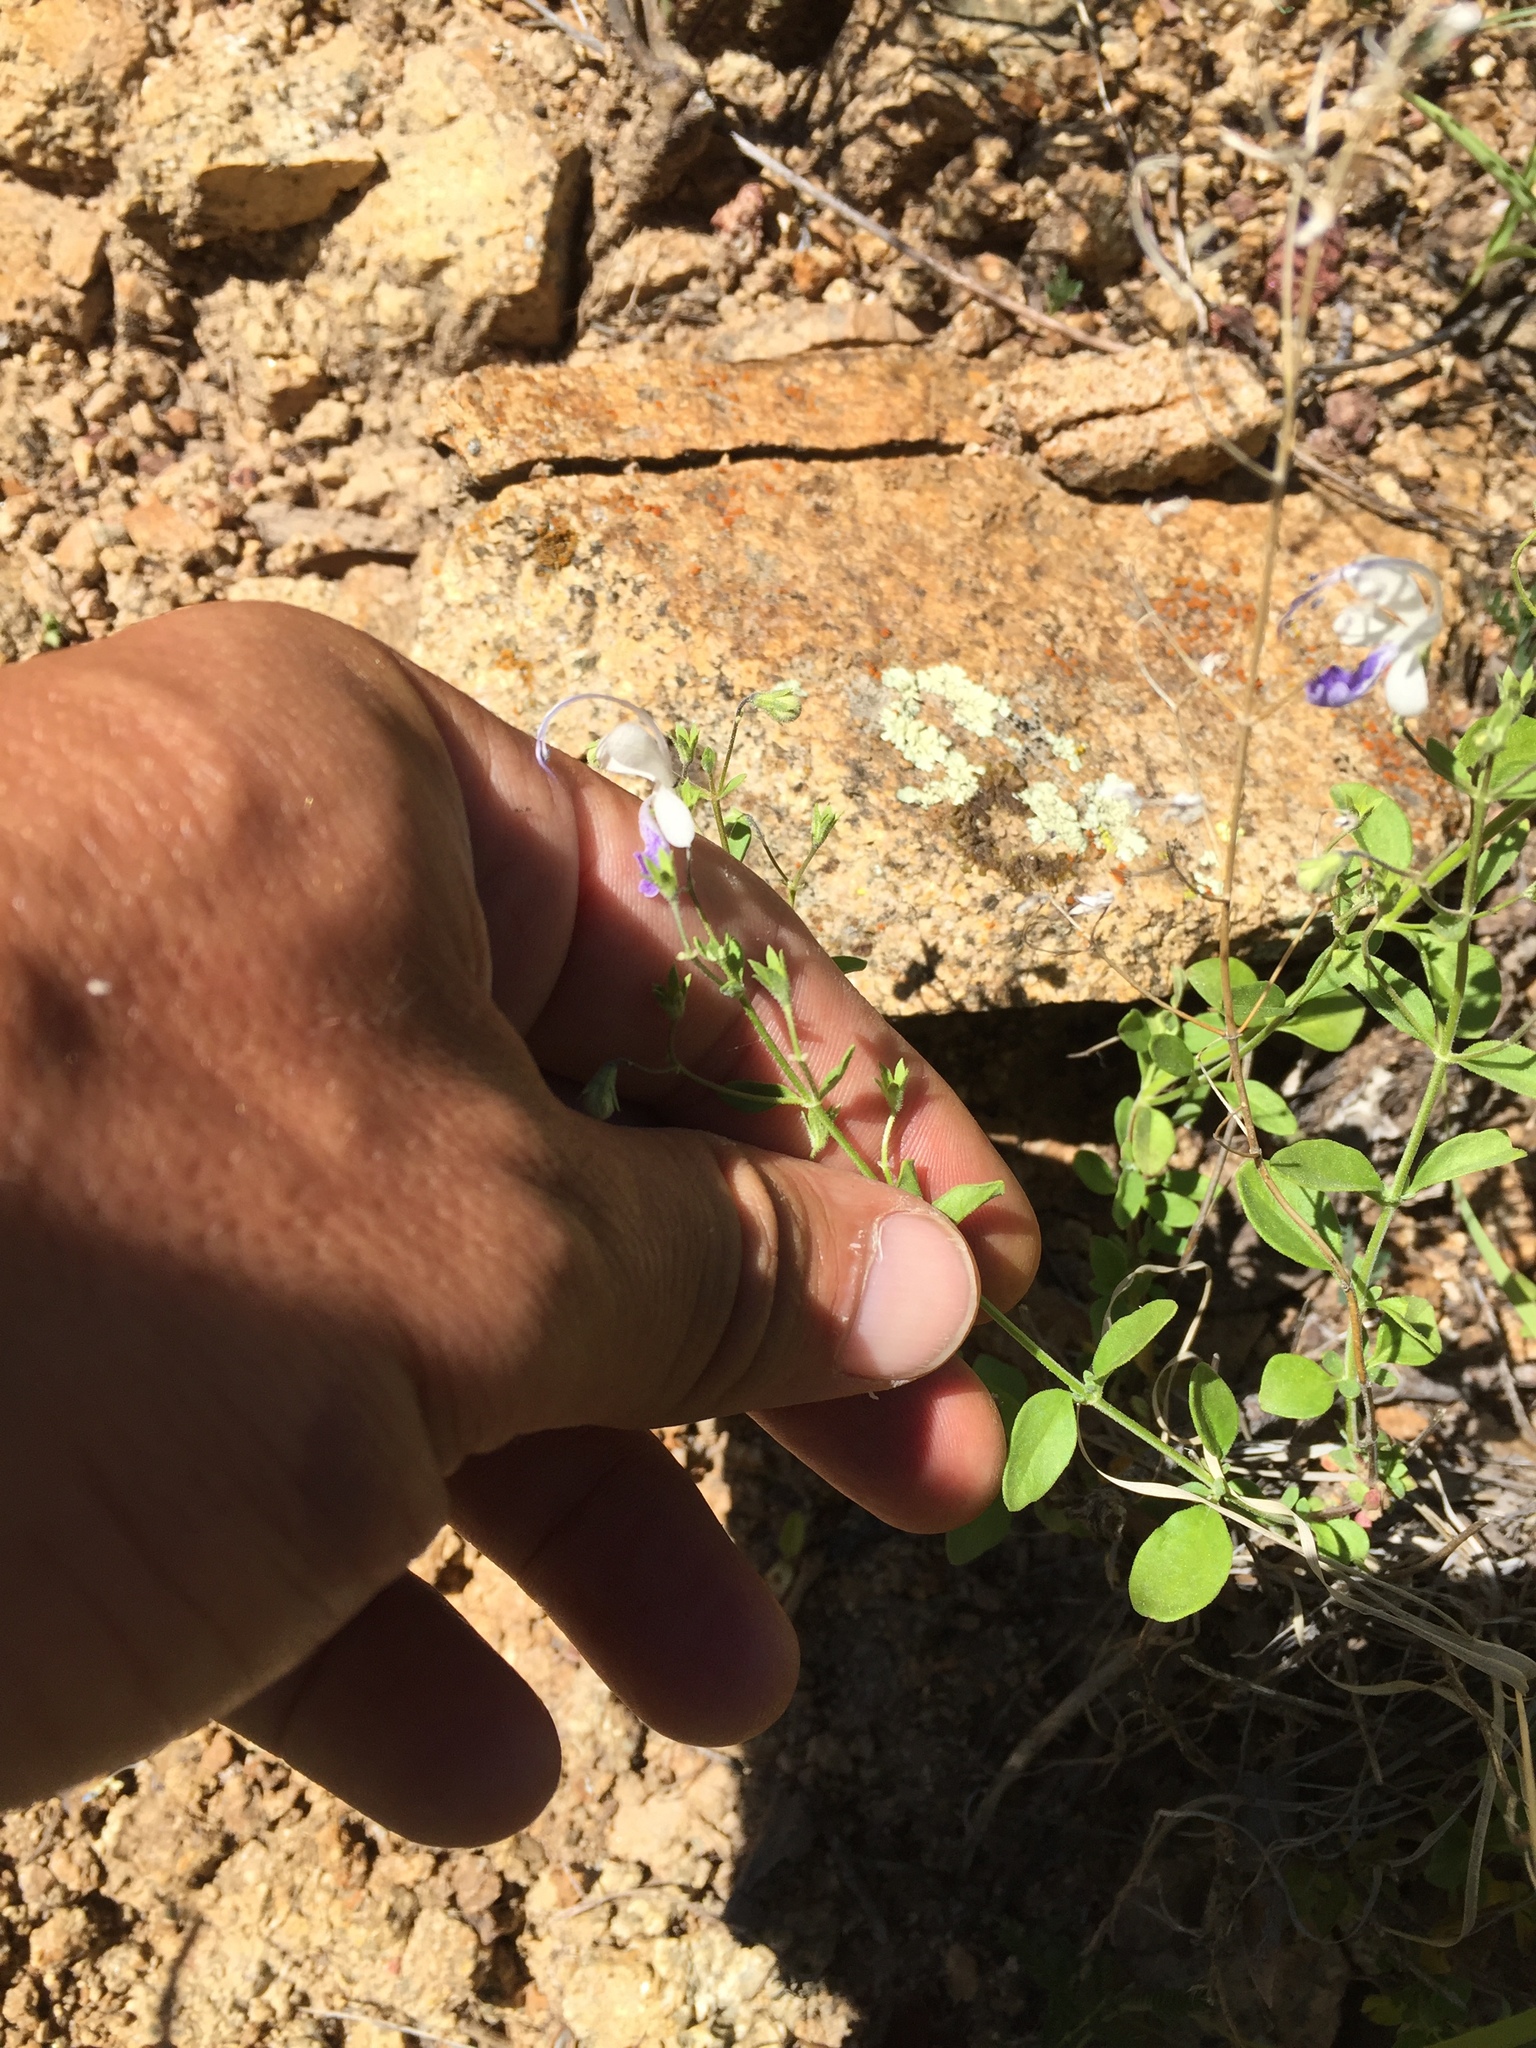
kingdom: Plantae
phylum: Tracheophyta
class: Magnoliopsida
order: Lamiales
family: Lamiaceae
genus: Trichostema
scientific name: Trichostema arizonicum
